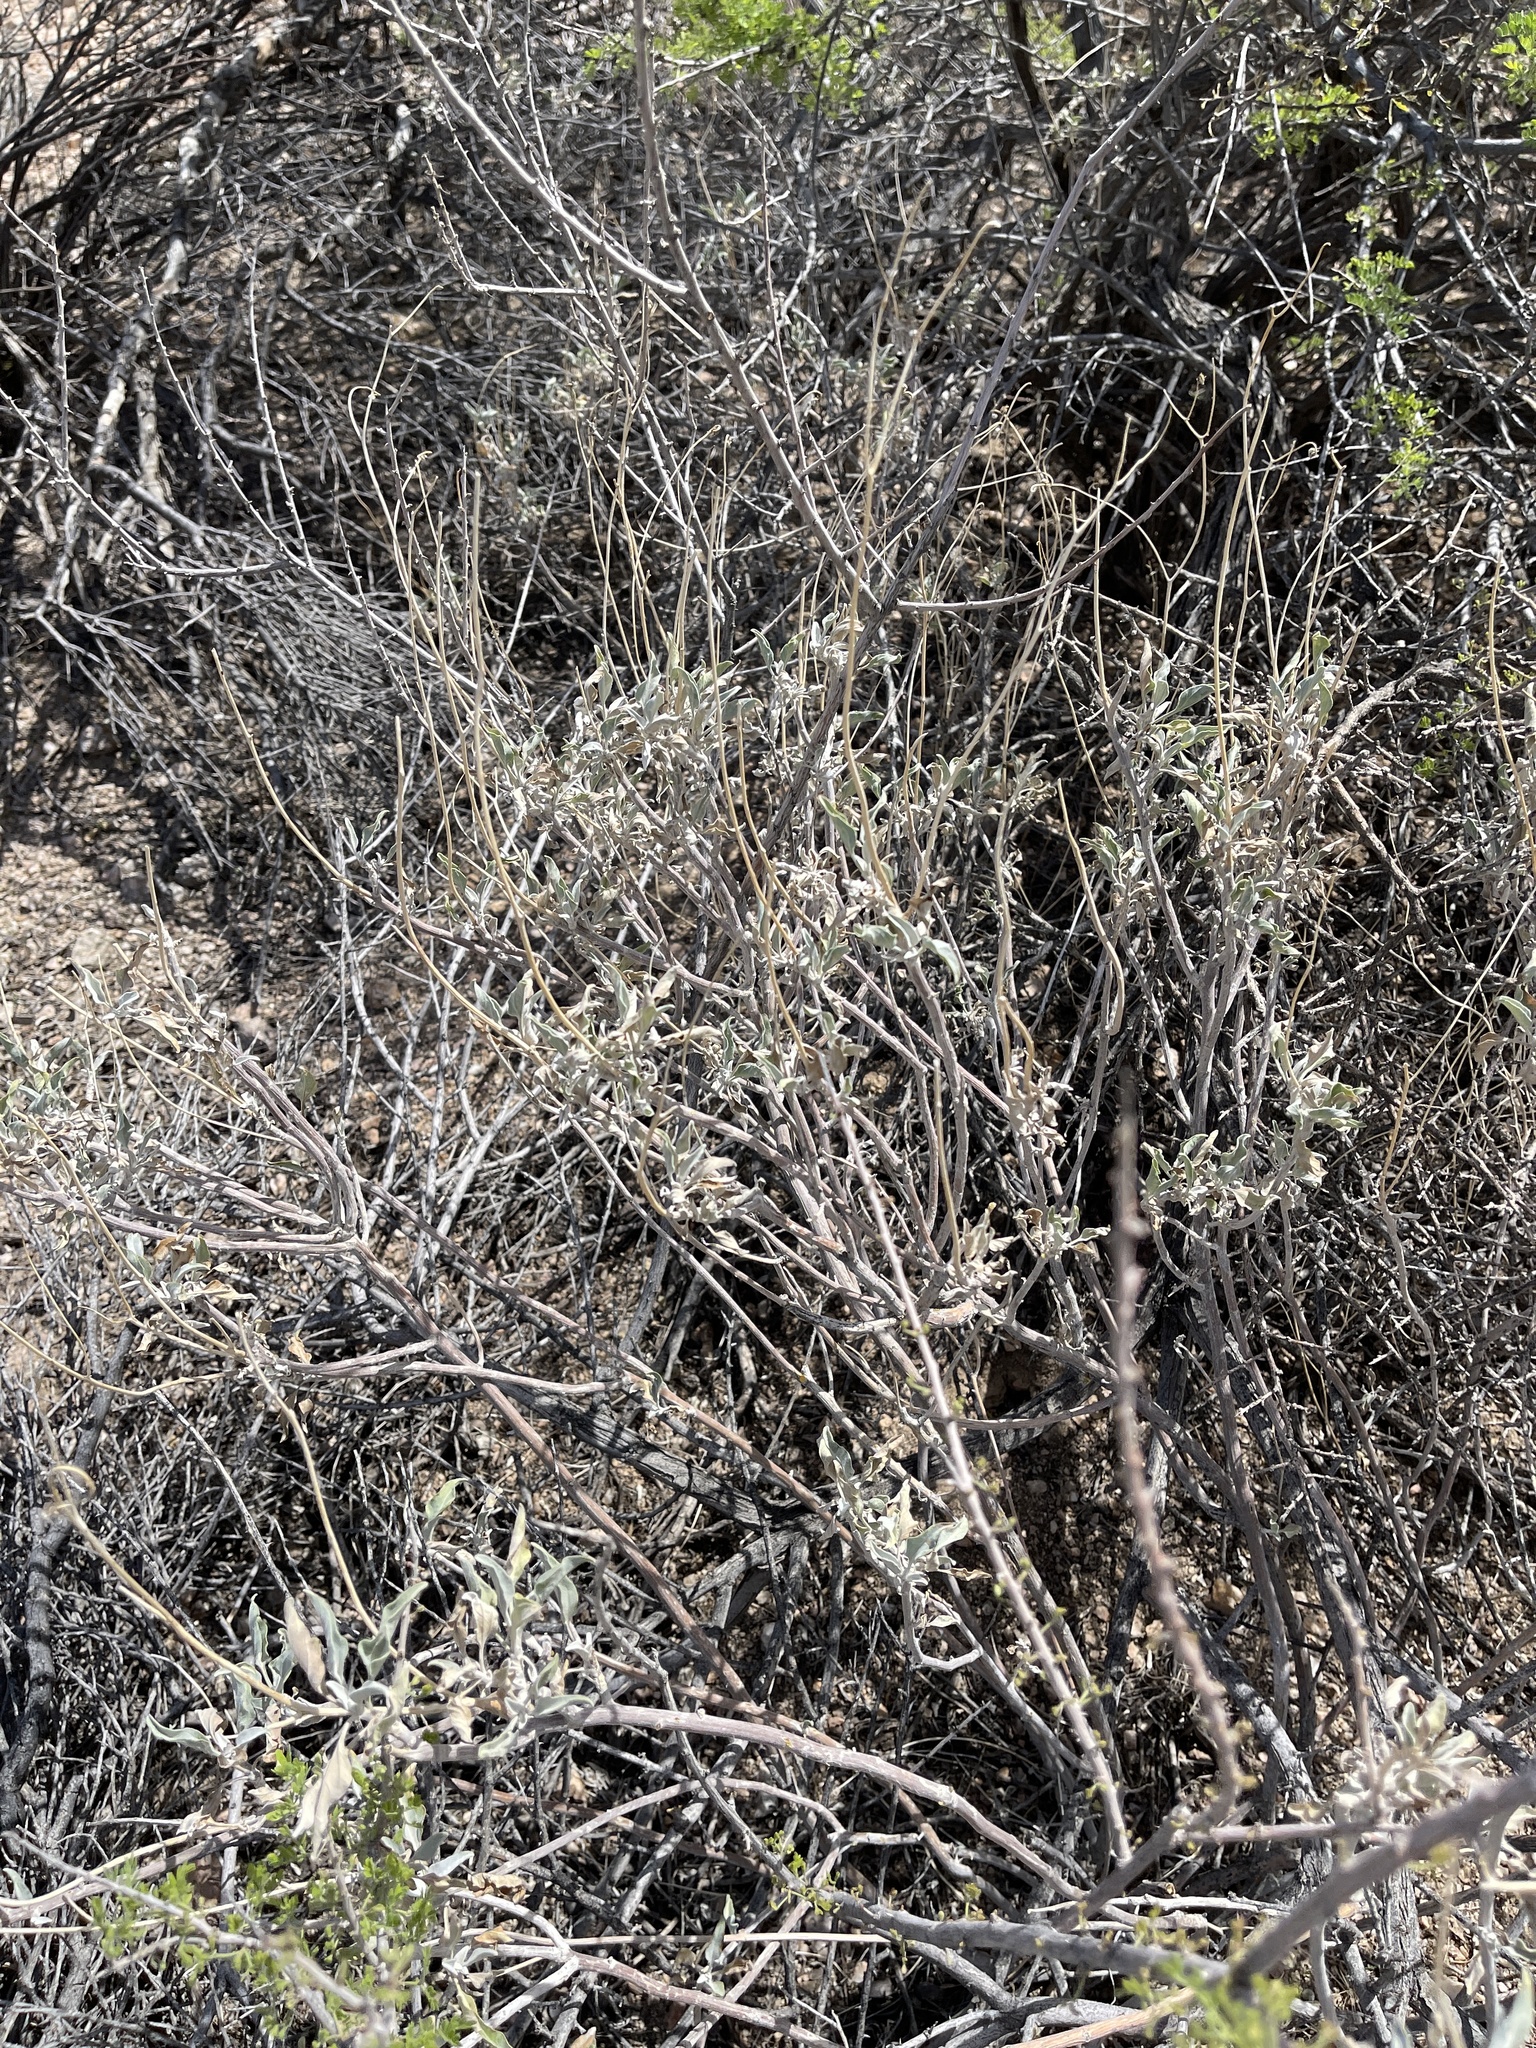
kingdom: Plantae
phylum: Tracheophyta
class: Magnoliopsida
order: Asterales
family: Asteraceae
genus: Ambrosia
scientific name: Ambrosia dumosa
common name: Bur-sage
